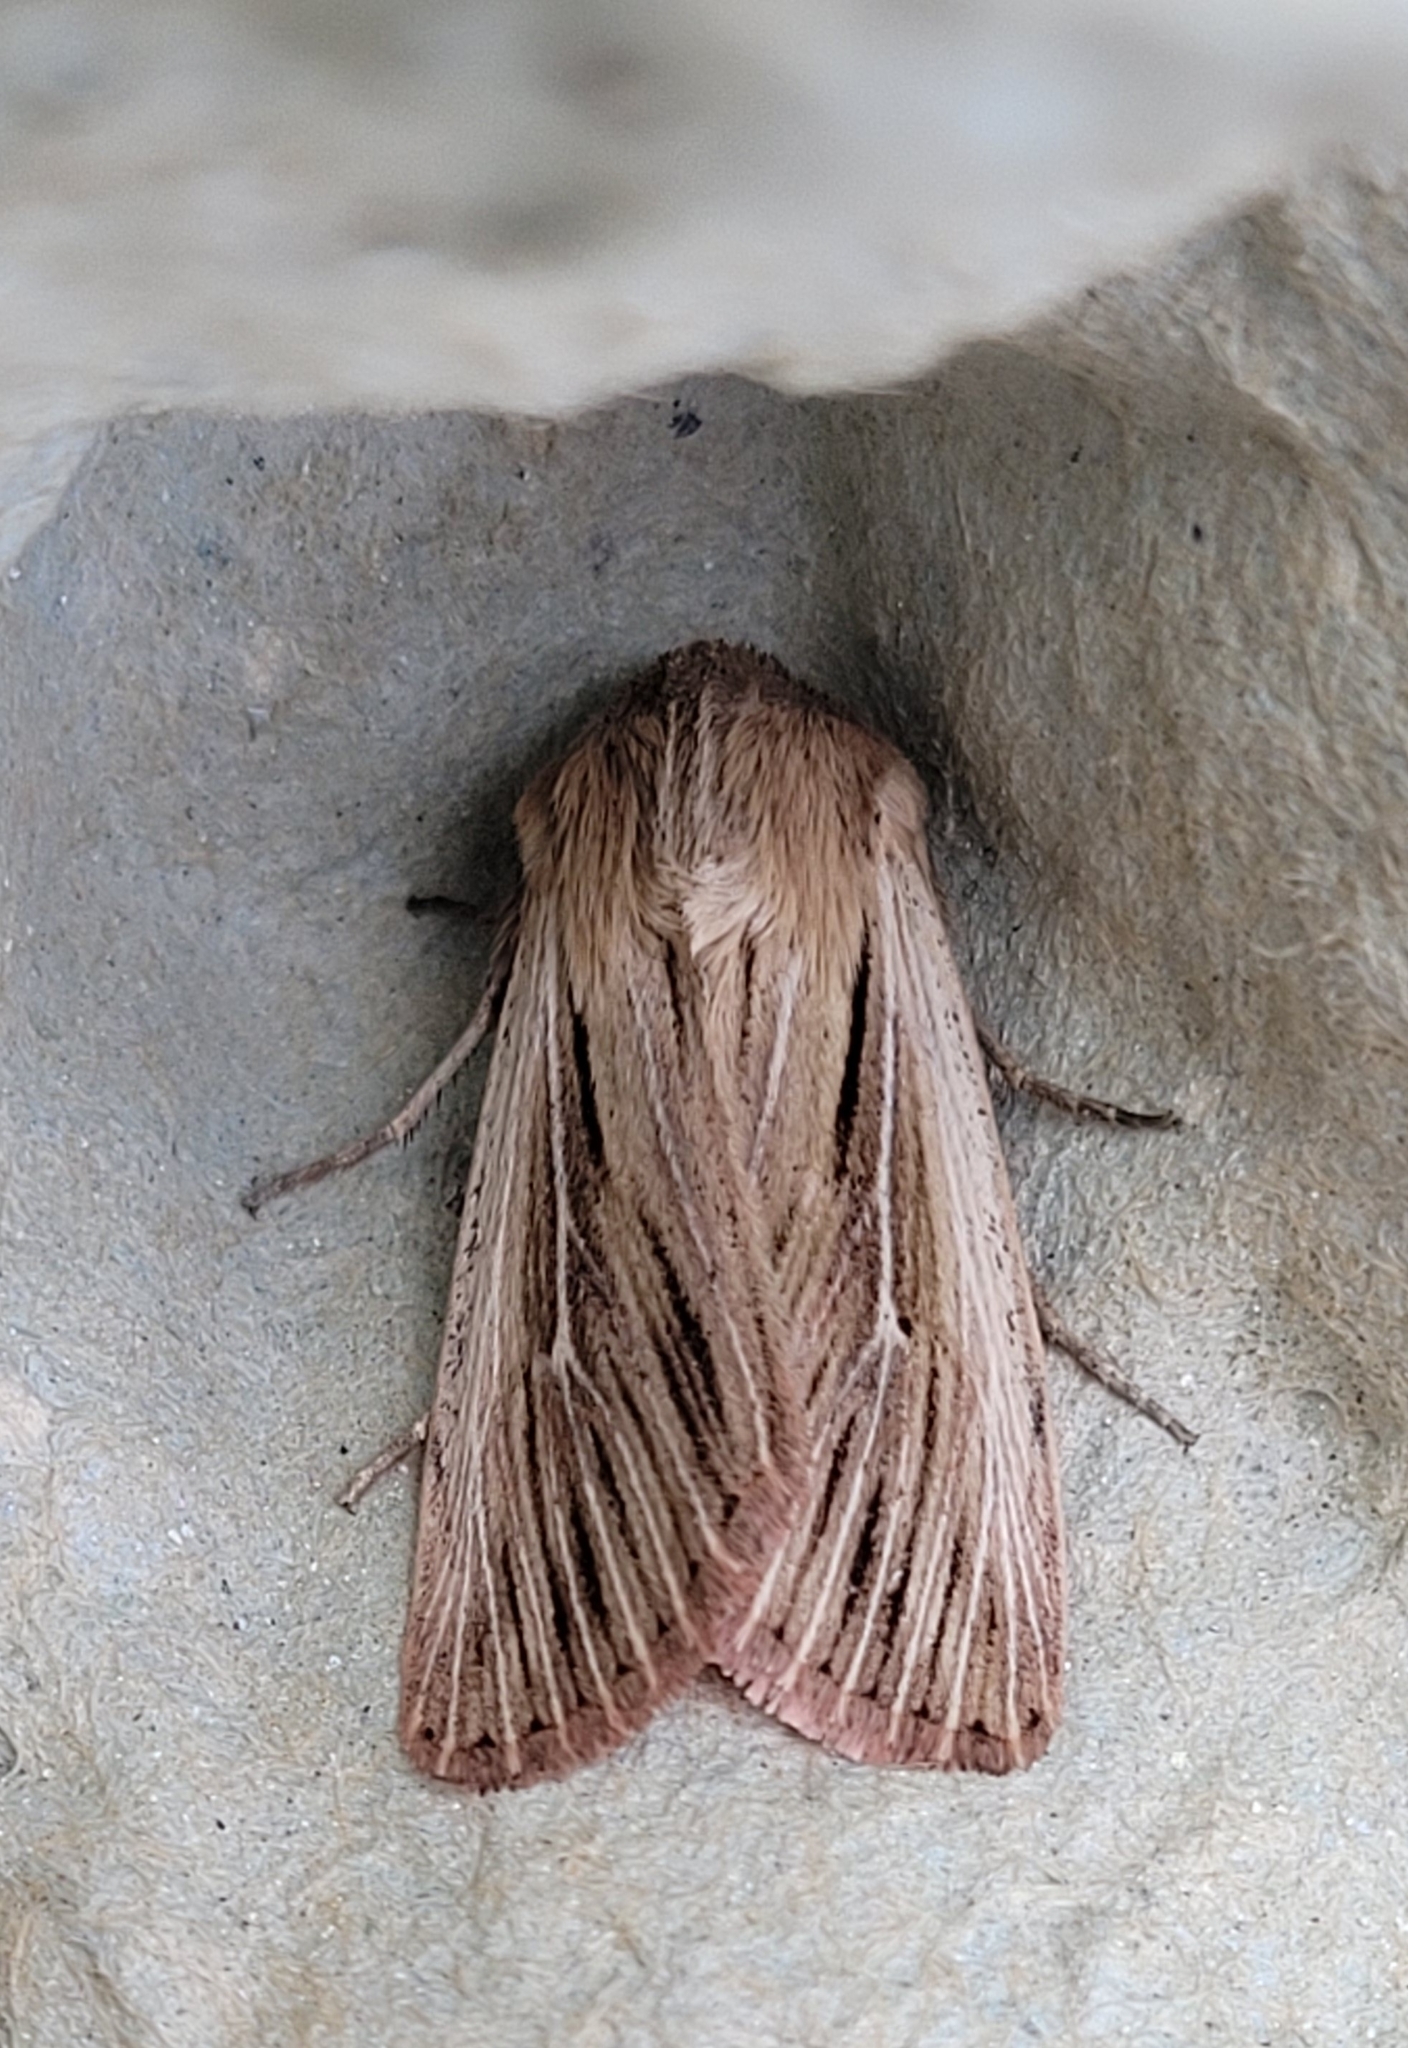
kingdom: Animalia
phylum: Arthropoda
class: Insecta
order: Lepidoptera
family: Noctuidae
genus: Leucania
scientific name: Leucania comma
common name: Shoulder-striped wainscot
